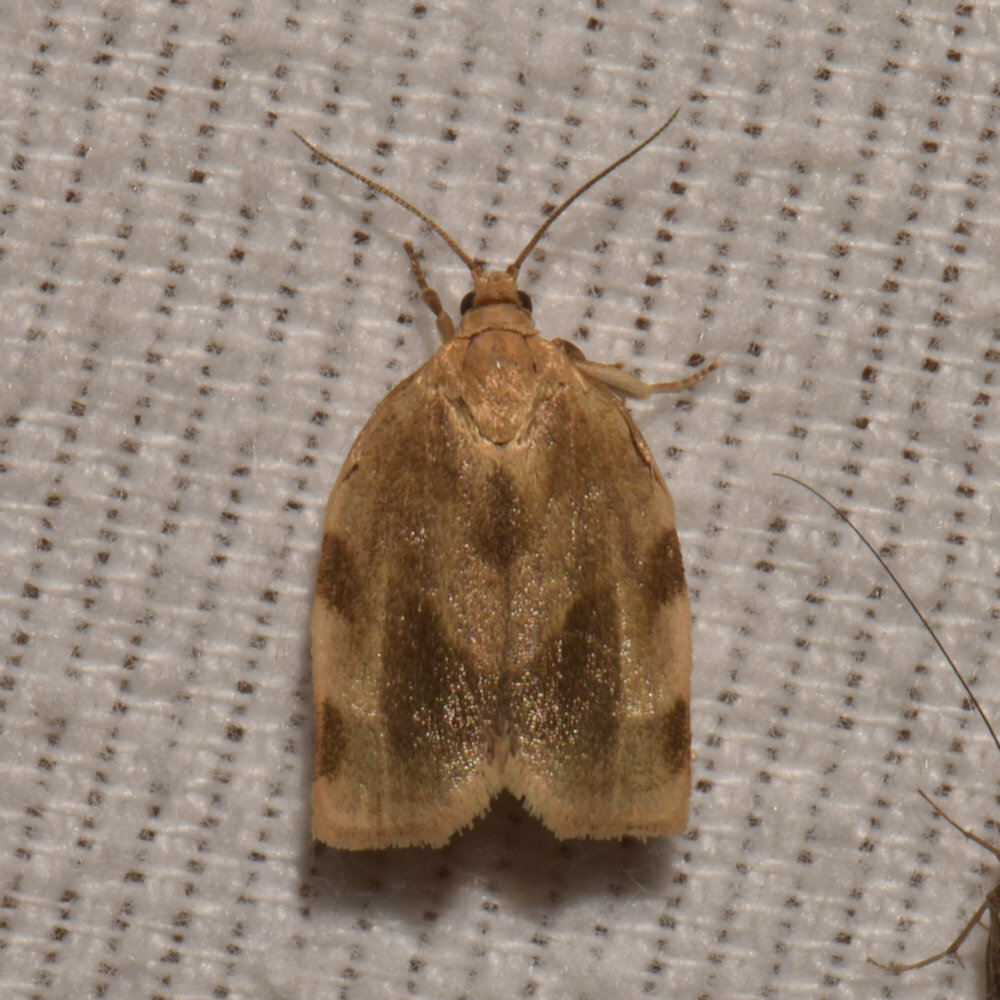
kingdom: Animalia
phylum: Arthropoda
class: Insecta
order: Lepidoptera
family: Tortricidae
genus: Choristoneura
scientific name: Choristoneura fractivittana
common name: Broken-banded leafroller moth
